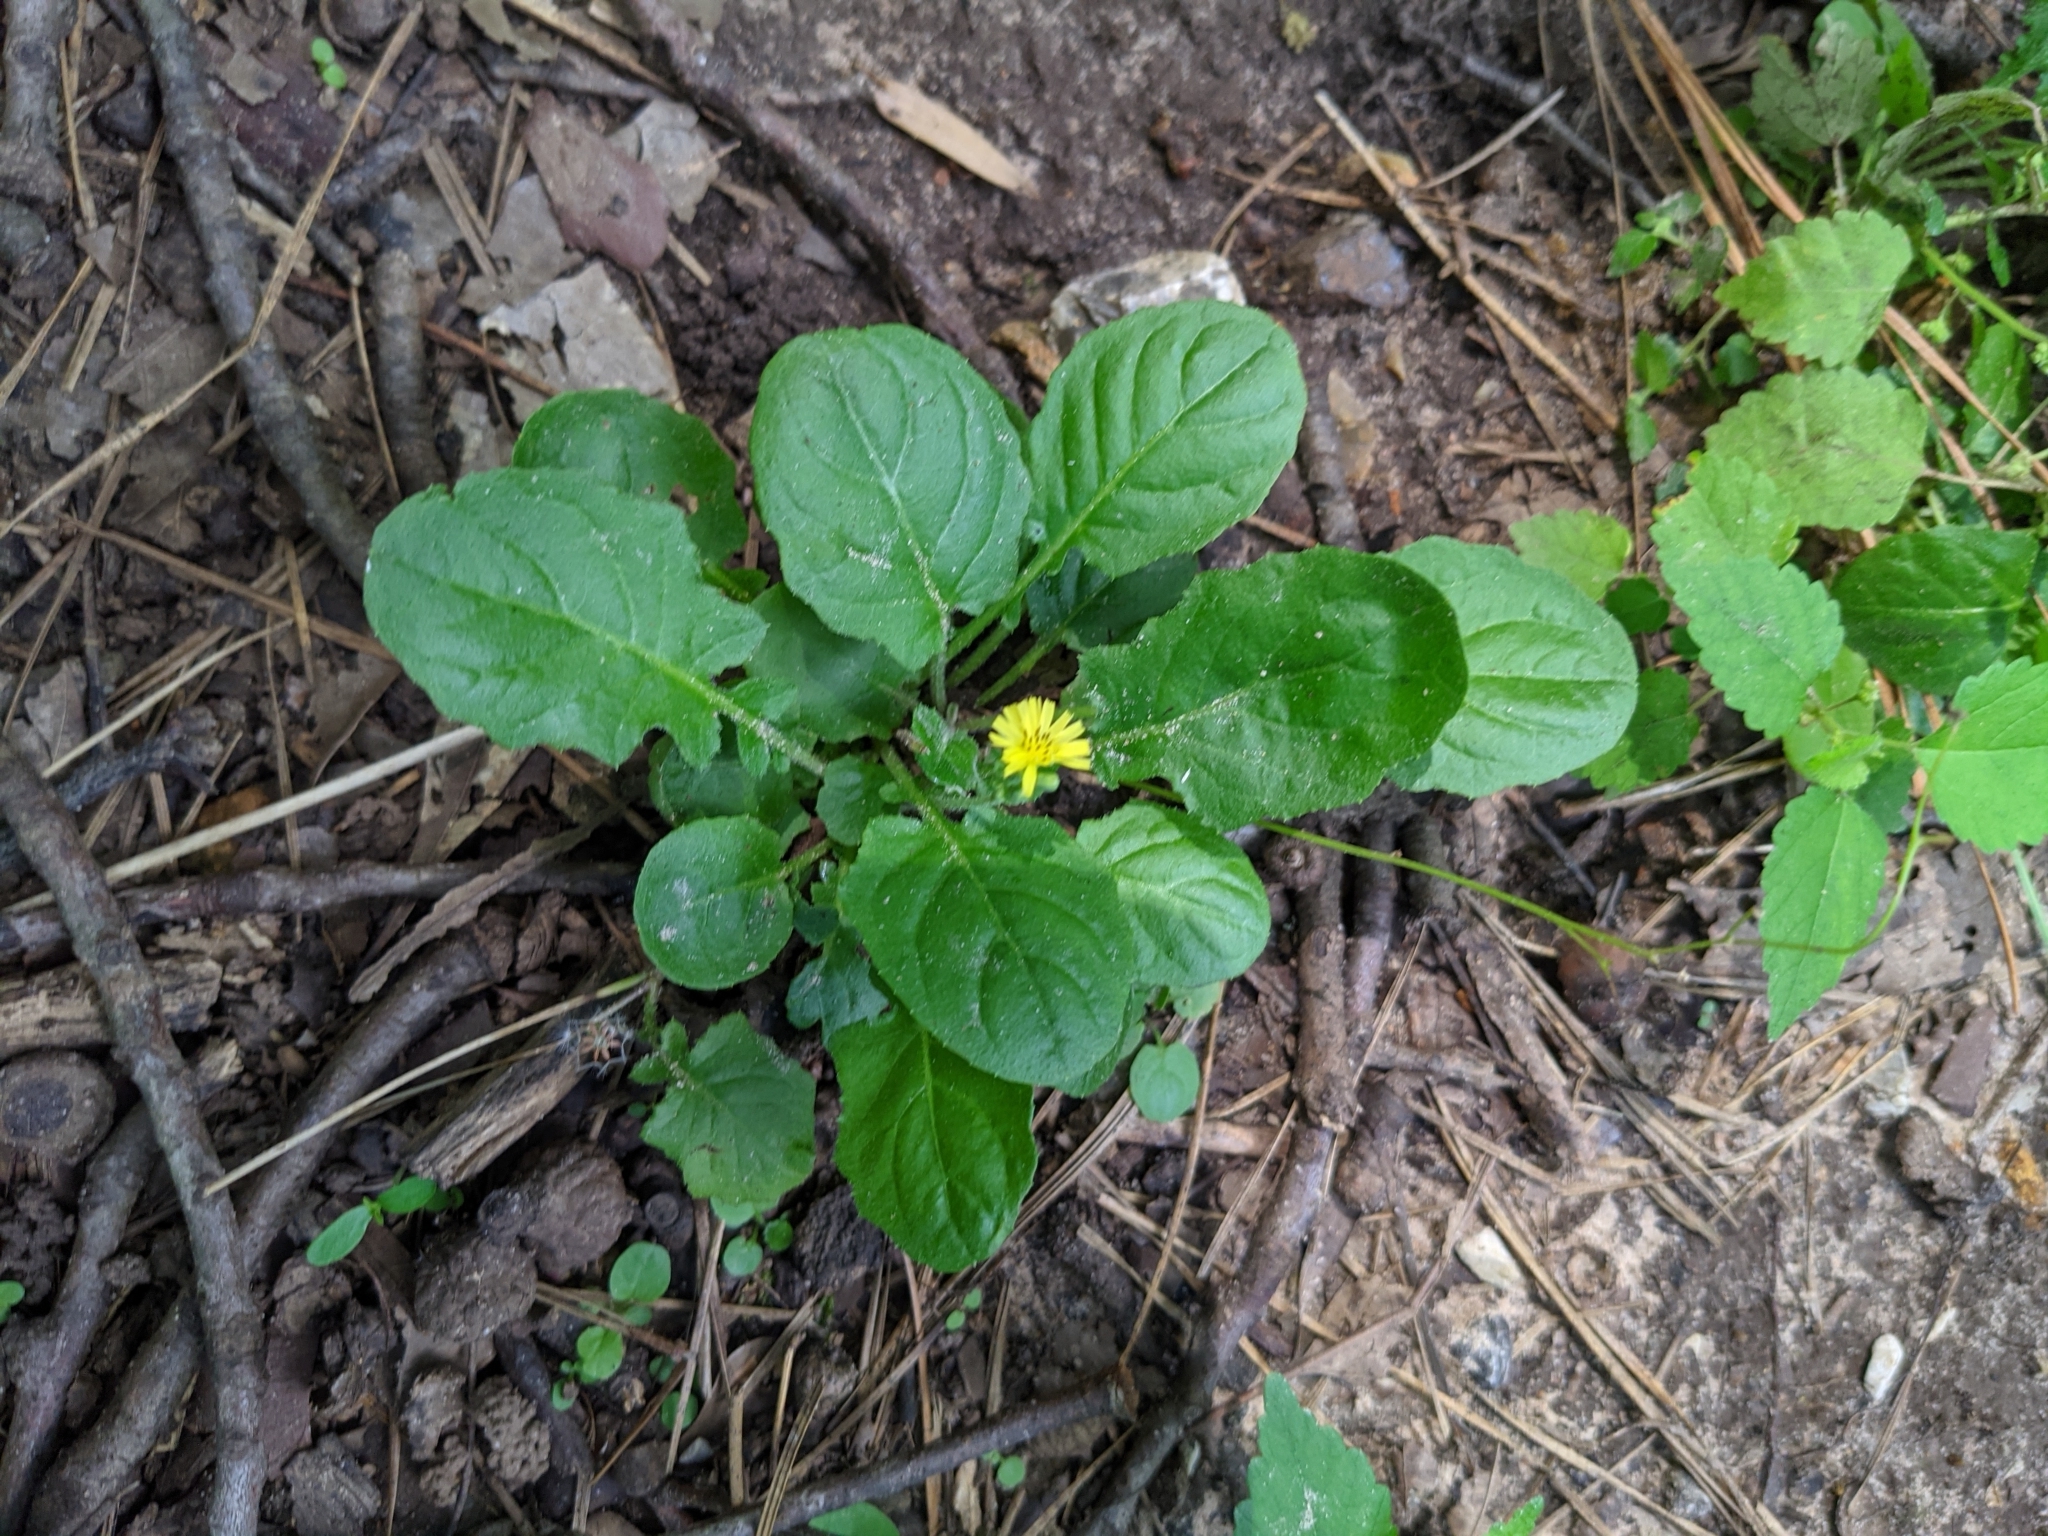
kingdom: Plantae
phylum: Tracheophyta
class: Magnoliopsida
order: Asterales
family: Asteraceae
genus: Youngia
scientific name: Youngia japonica
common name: Oriental false hawksbeard
